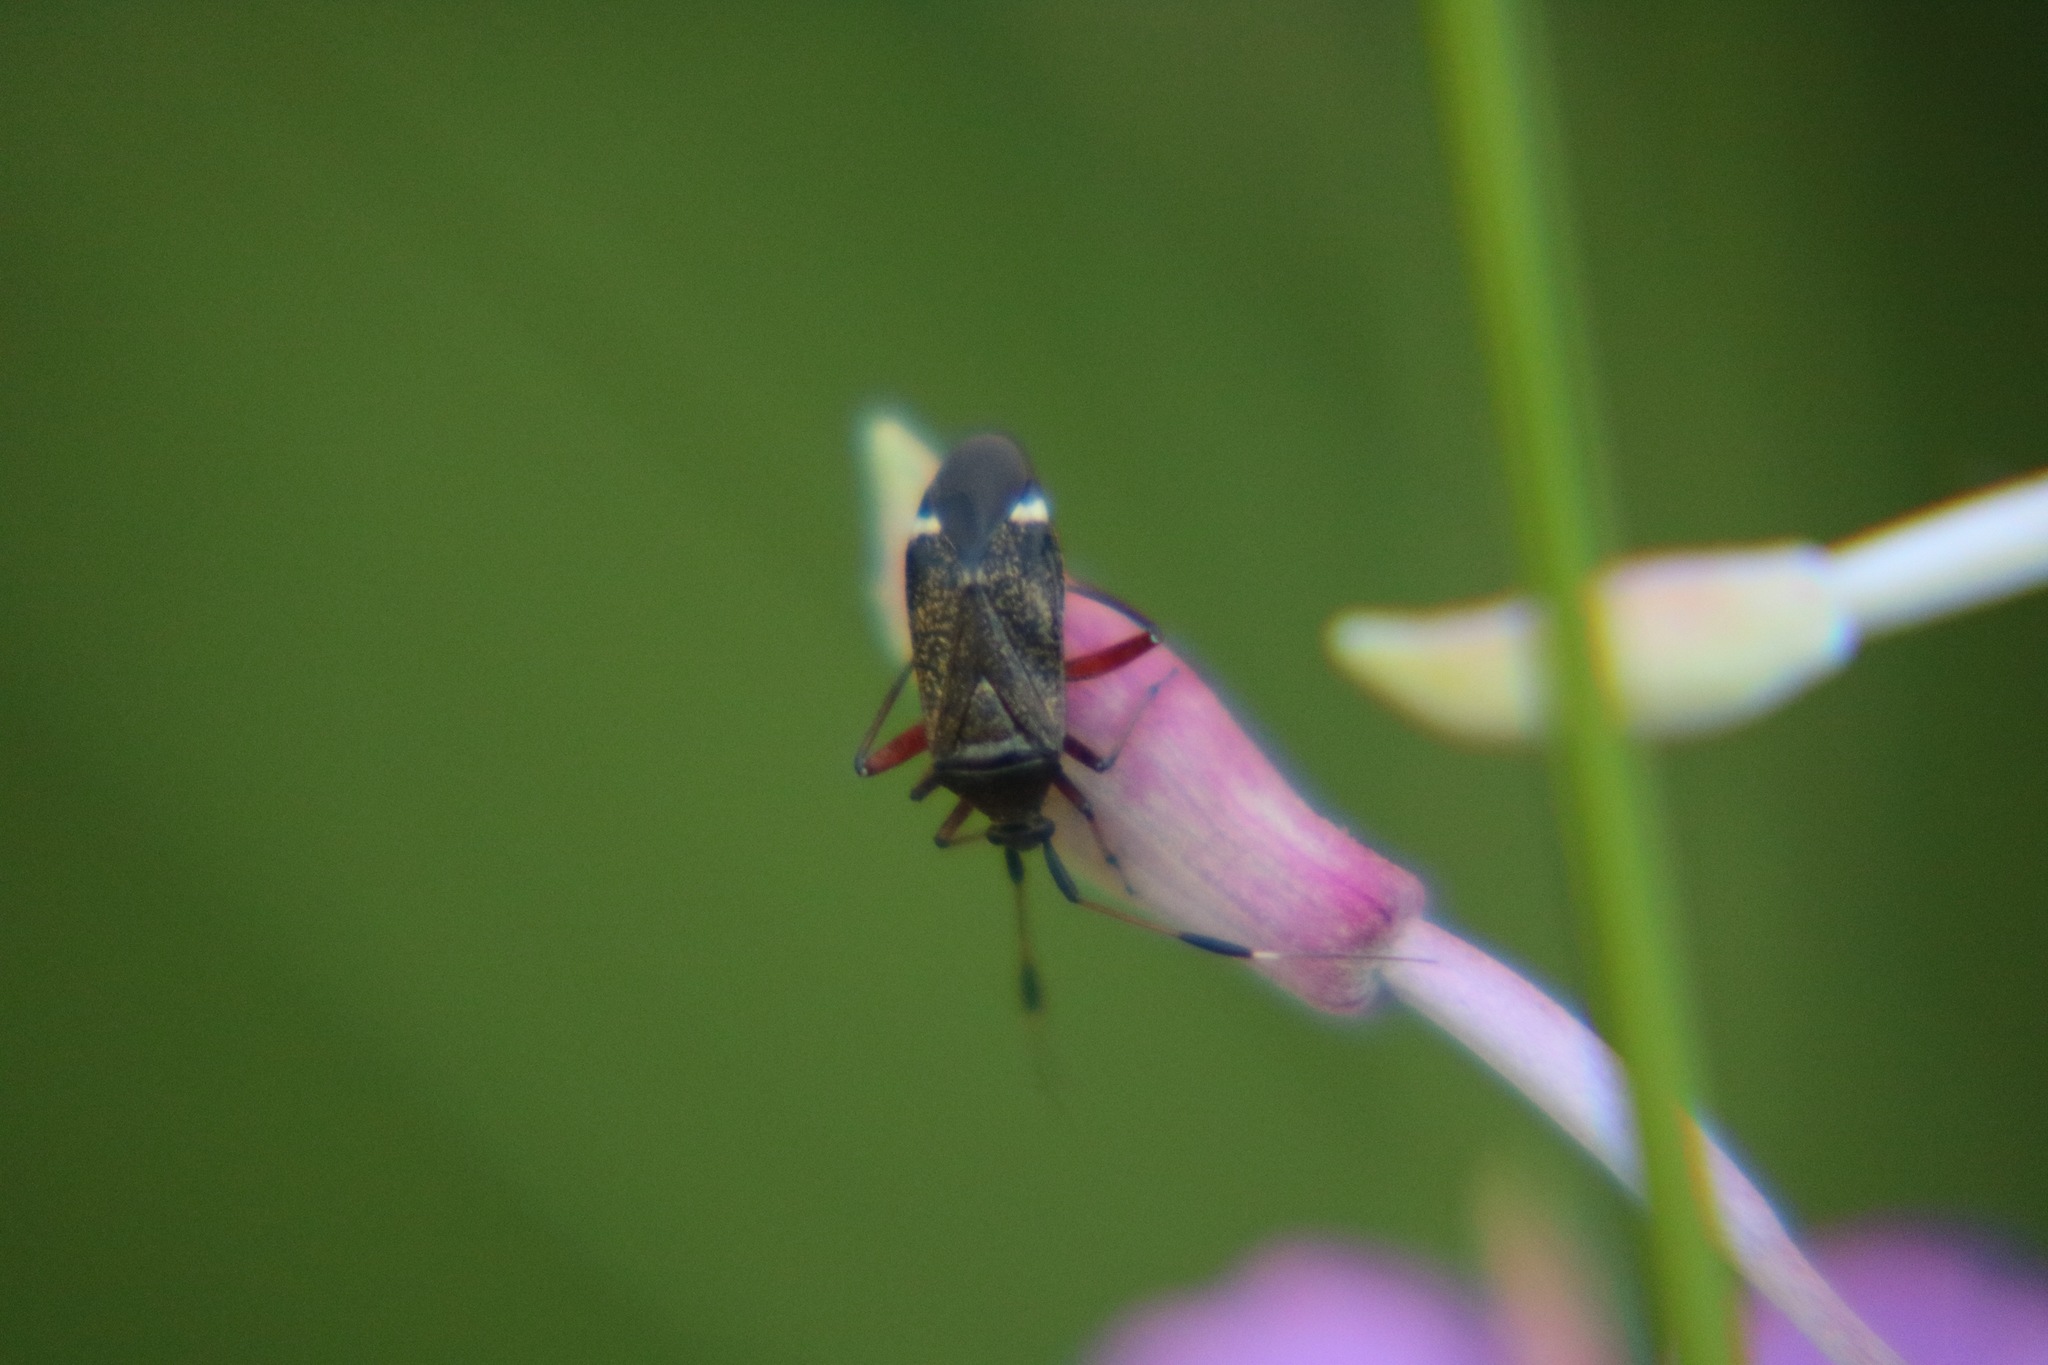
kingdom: Animalia
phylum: Arthropoda
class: Insecta
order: Hemiptera
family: Miridae
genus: Closterotomus
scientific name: Closterotomus biclavatus
